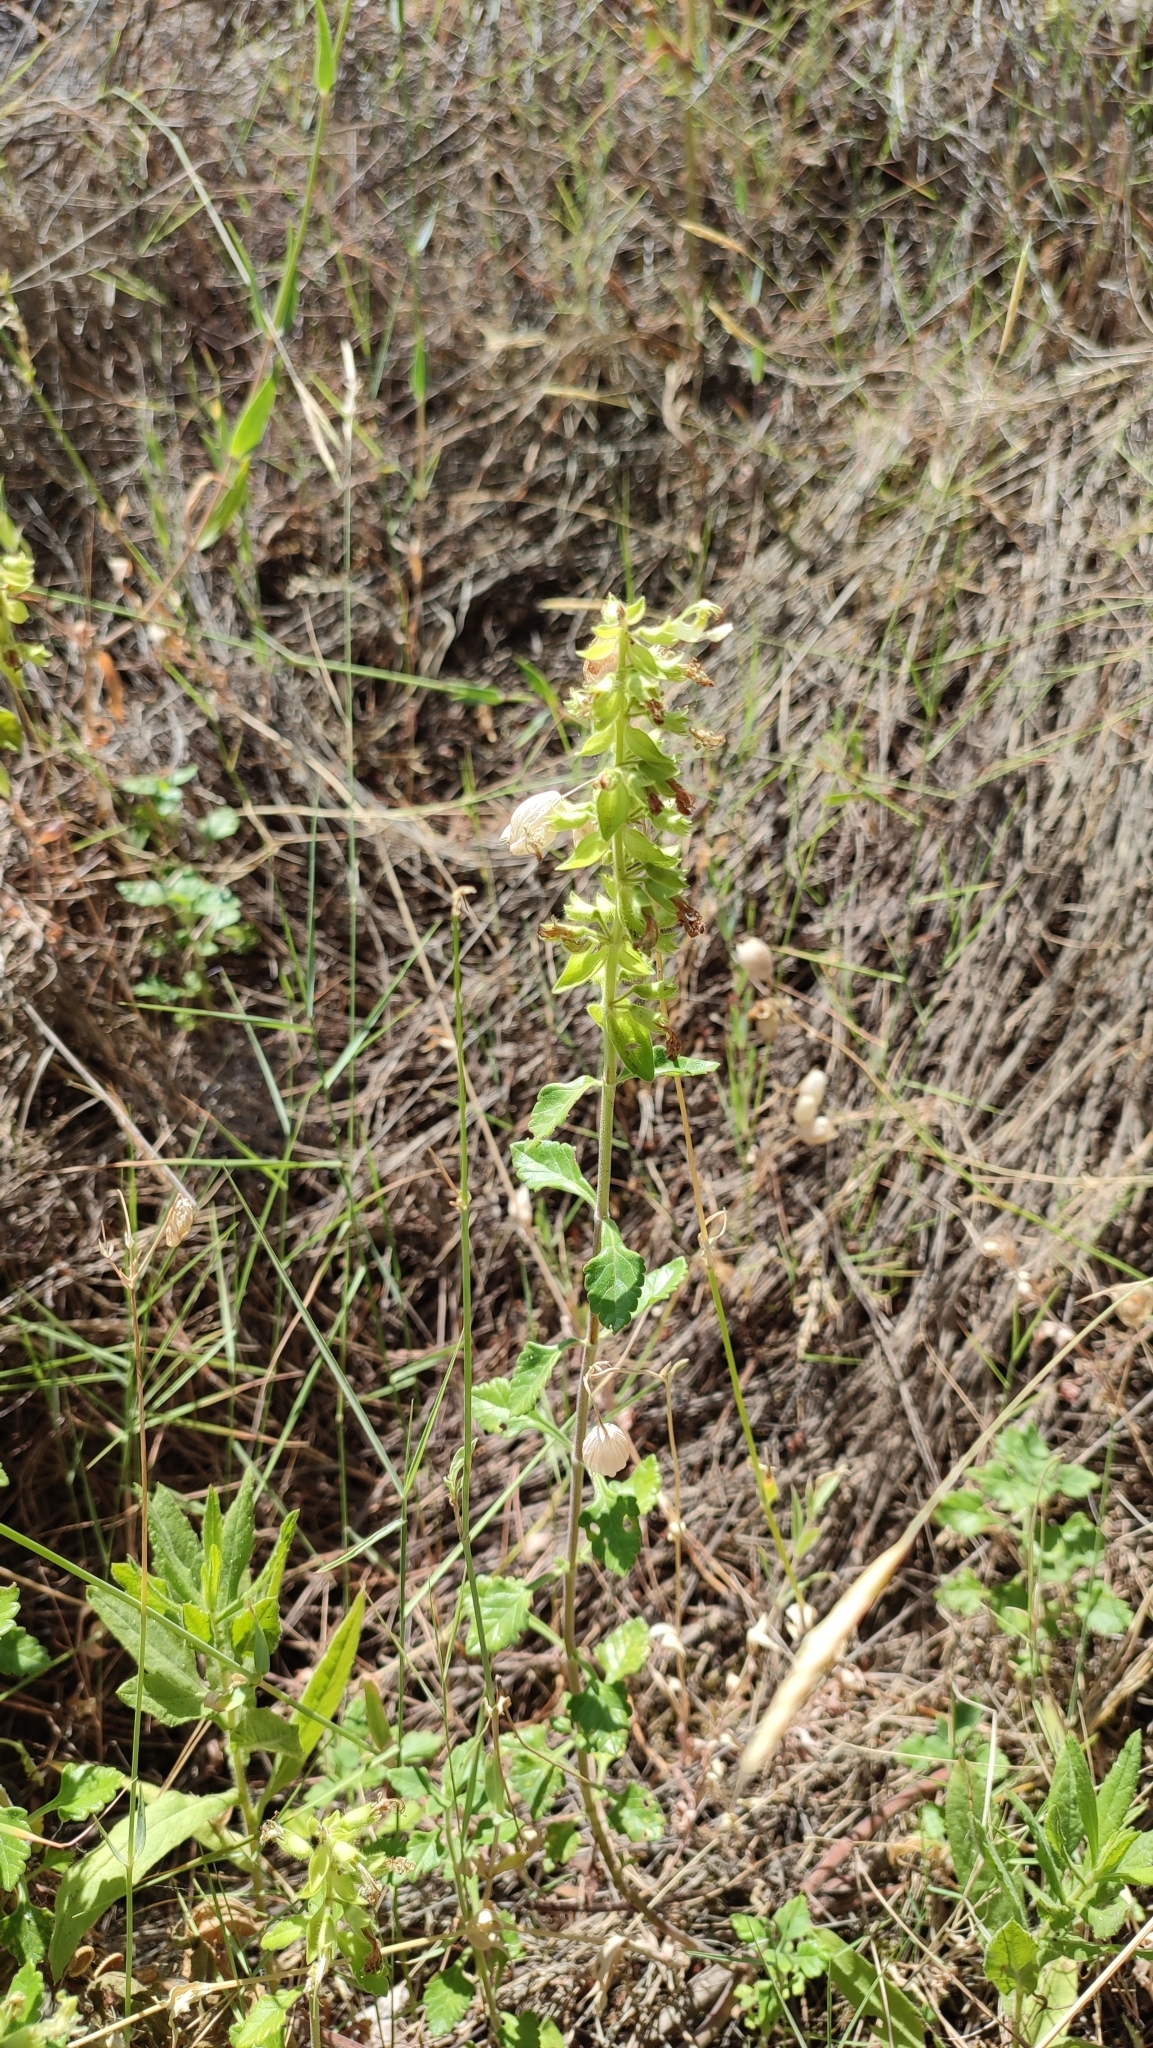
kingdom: Plantae
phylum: Tracheophyta
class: Magnoliopsida
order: Lamiales
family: Lamiaceae
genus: Teucrium
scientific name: Teucrium flavum
